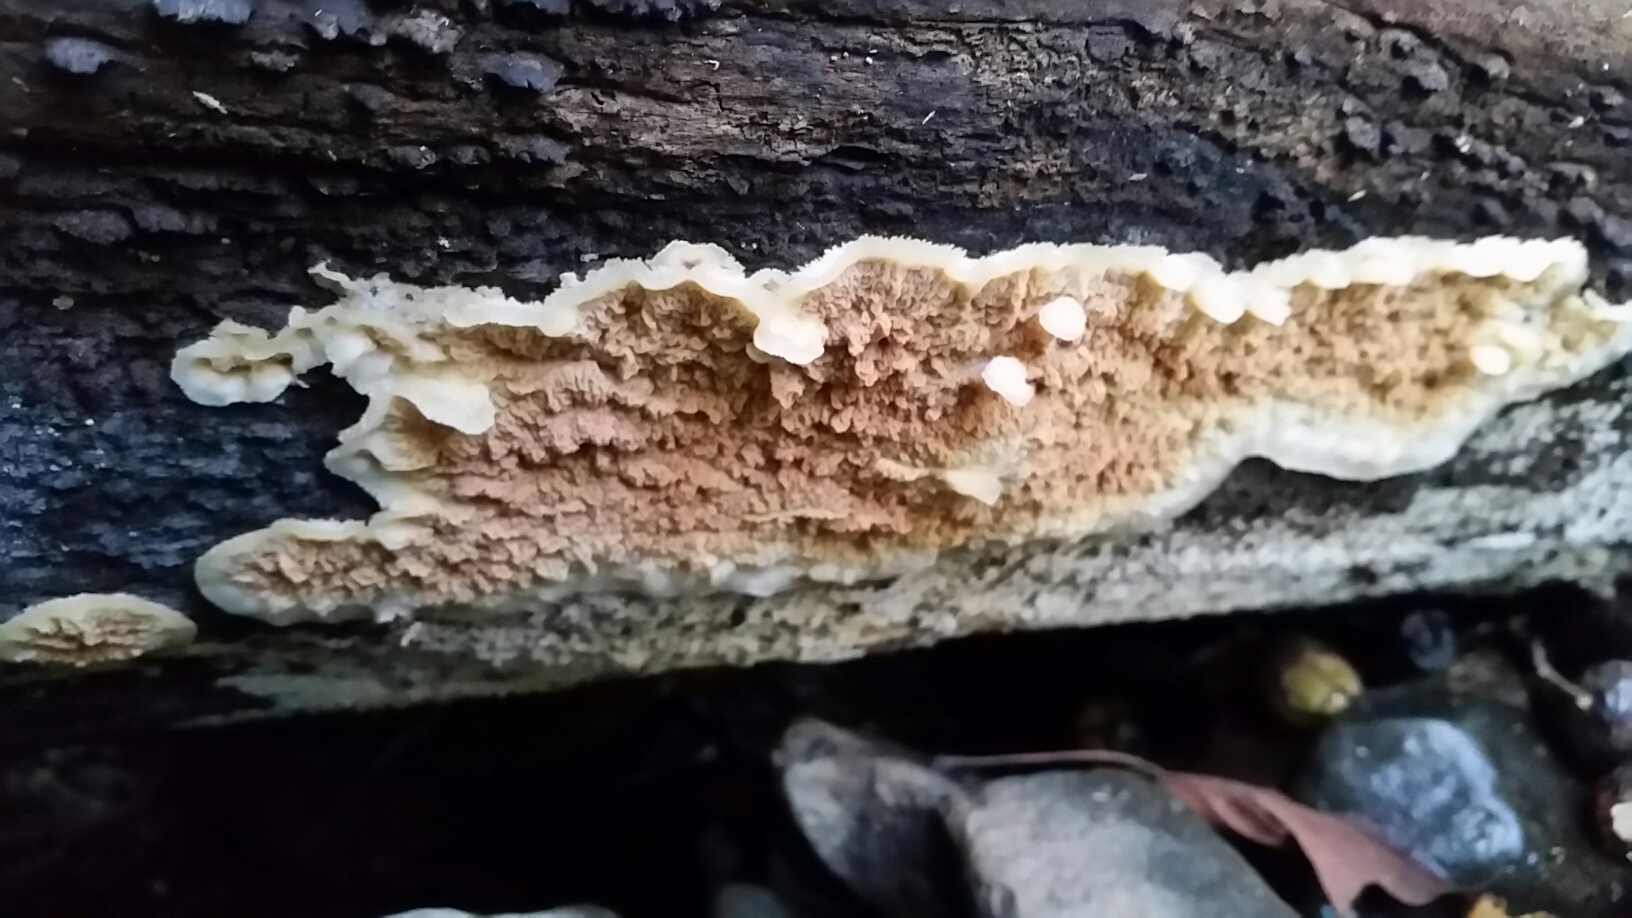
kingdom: Fungi
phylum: Basidiomycota
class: Agaricomycetes
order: Polyporales
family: Meruliaceae
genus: Phlebia
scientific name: Phlebia radiata
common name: Wrinkled crust
